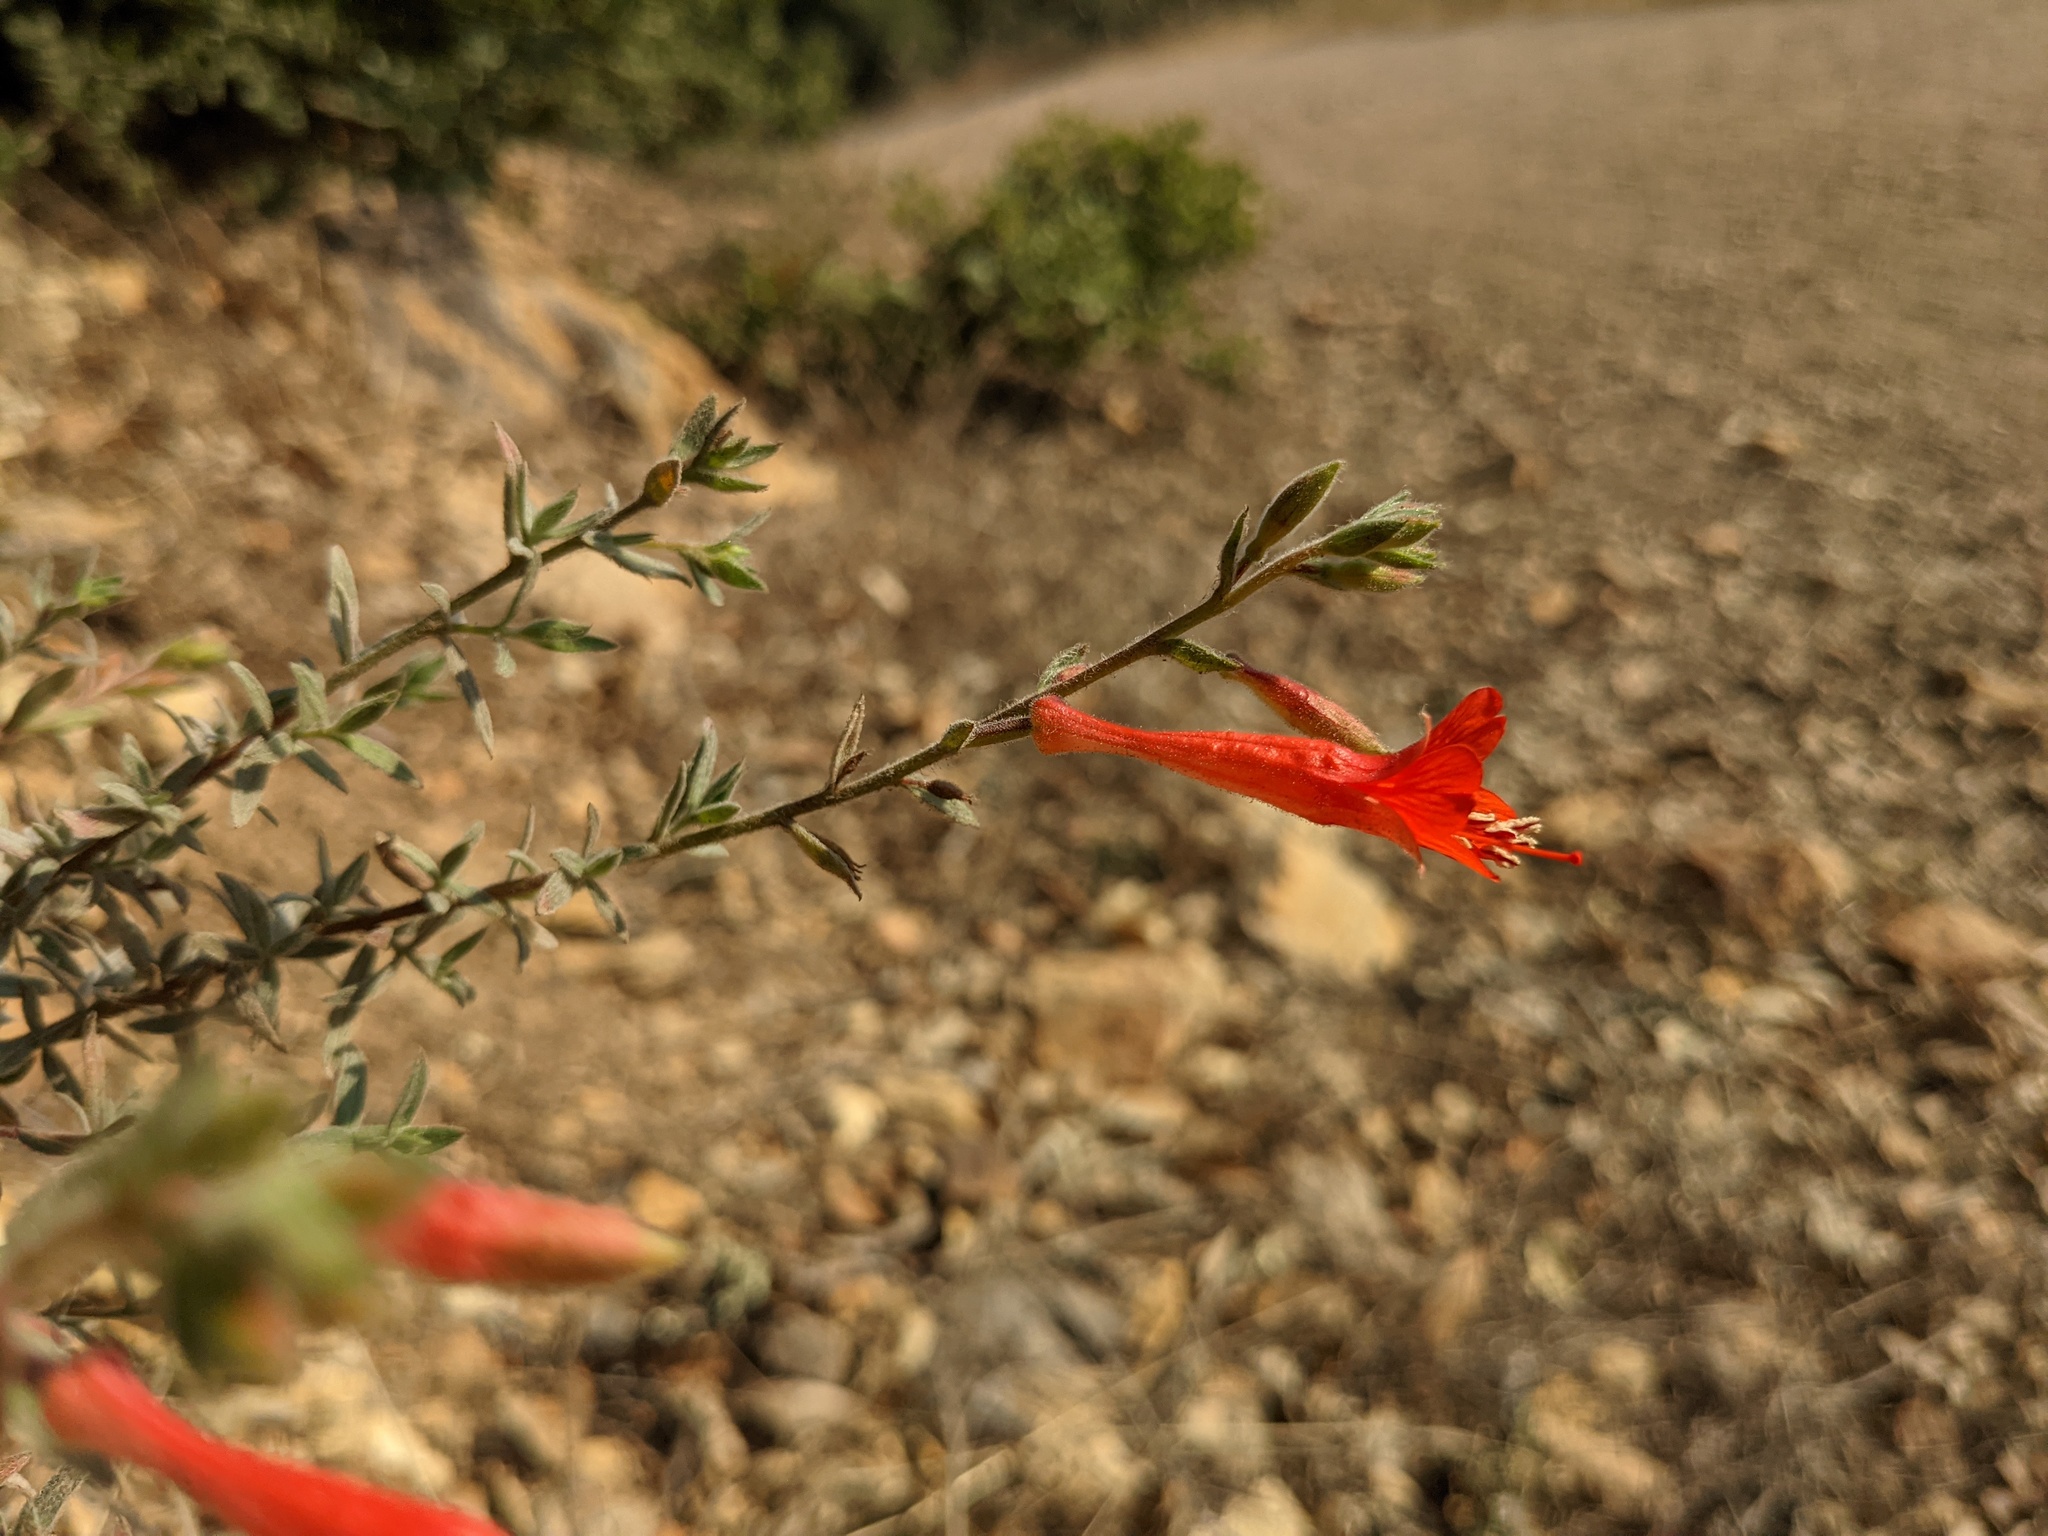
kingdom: Plantae
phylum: Tracheophyta
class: Magnoliopsida
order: Myrtales
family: Onagraceae
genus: Epilobium
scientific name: Epilobium canum
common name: California-fuchsia
